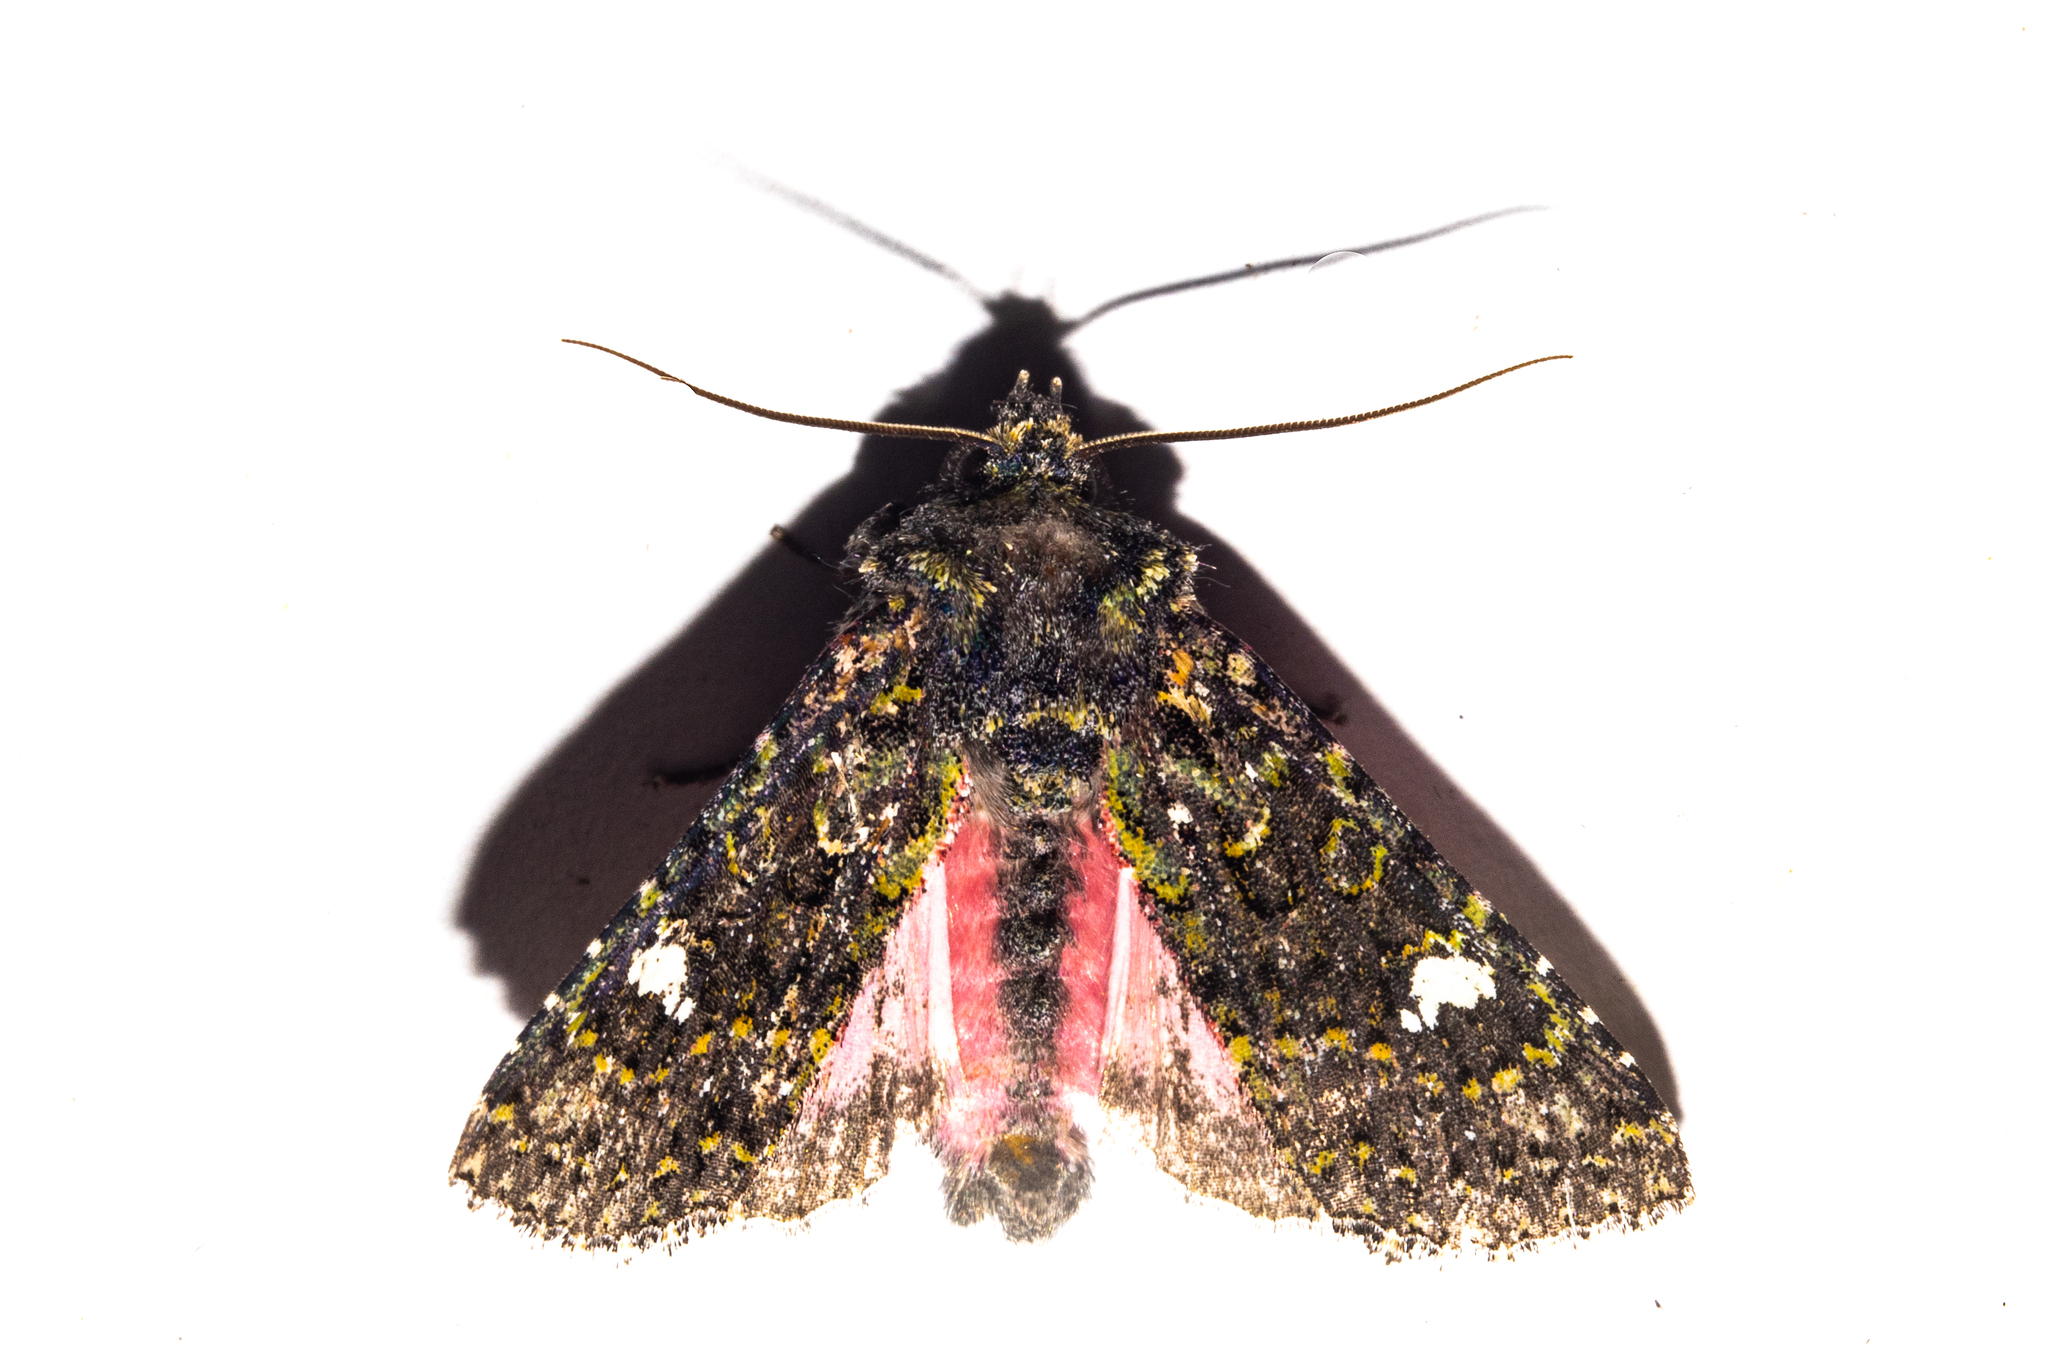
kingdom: Animalia
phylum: Arthropoda
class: Insecta
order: Lepidoptera
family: Noctuidae
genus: Meterana
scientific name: Meterana meyricci
